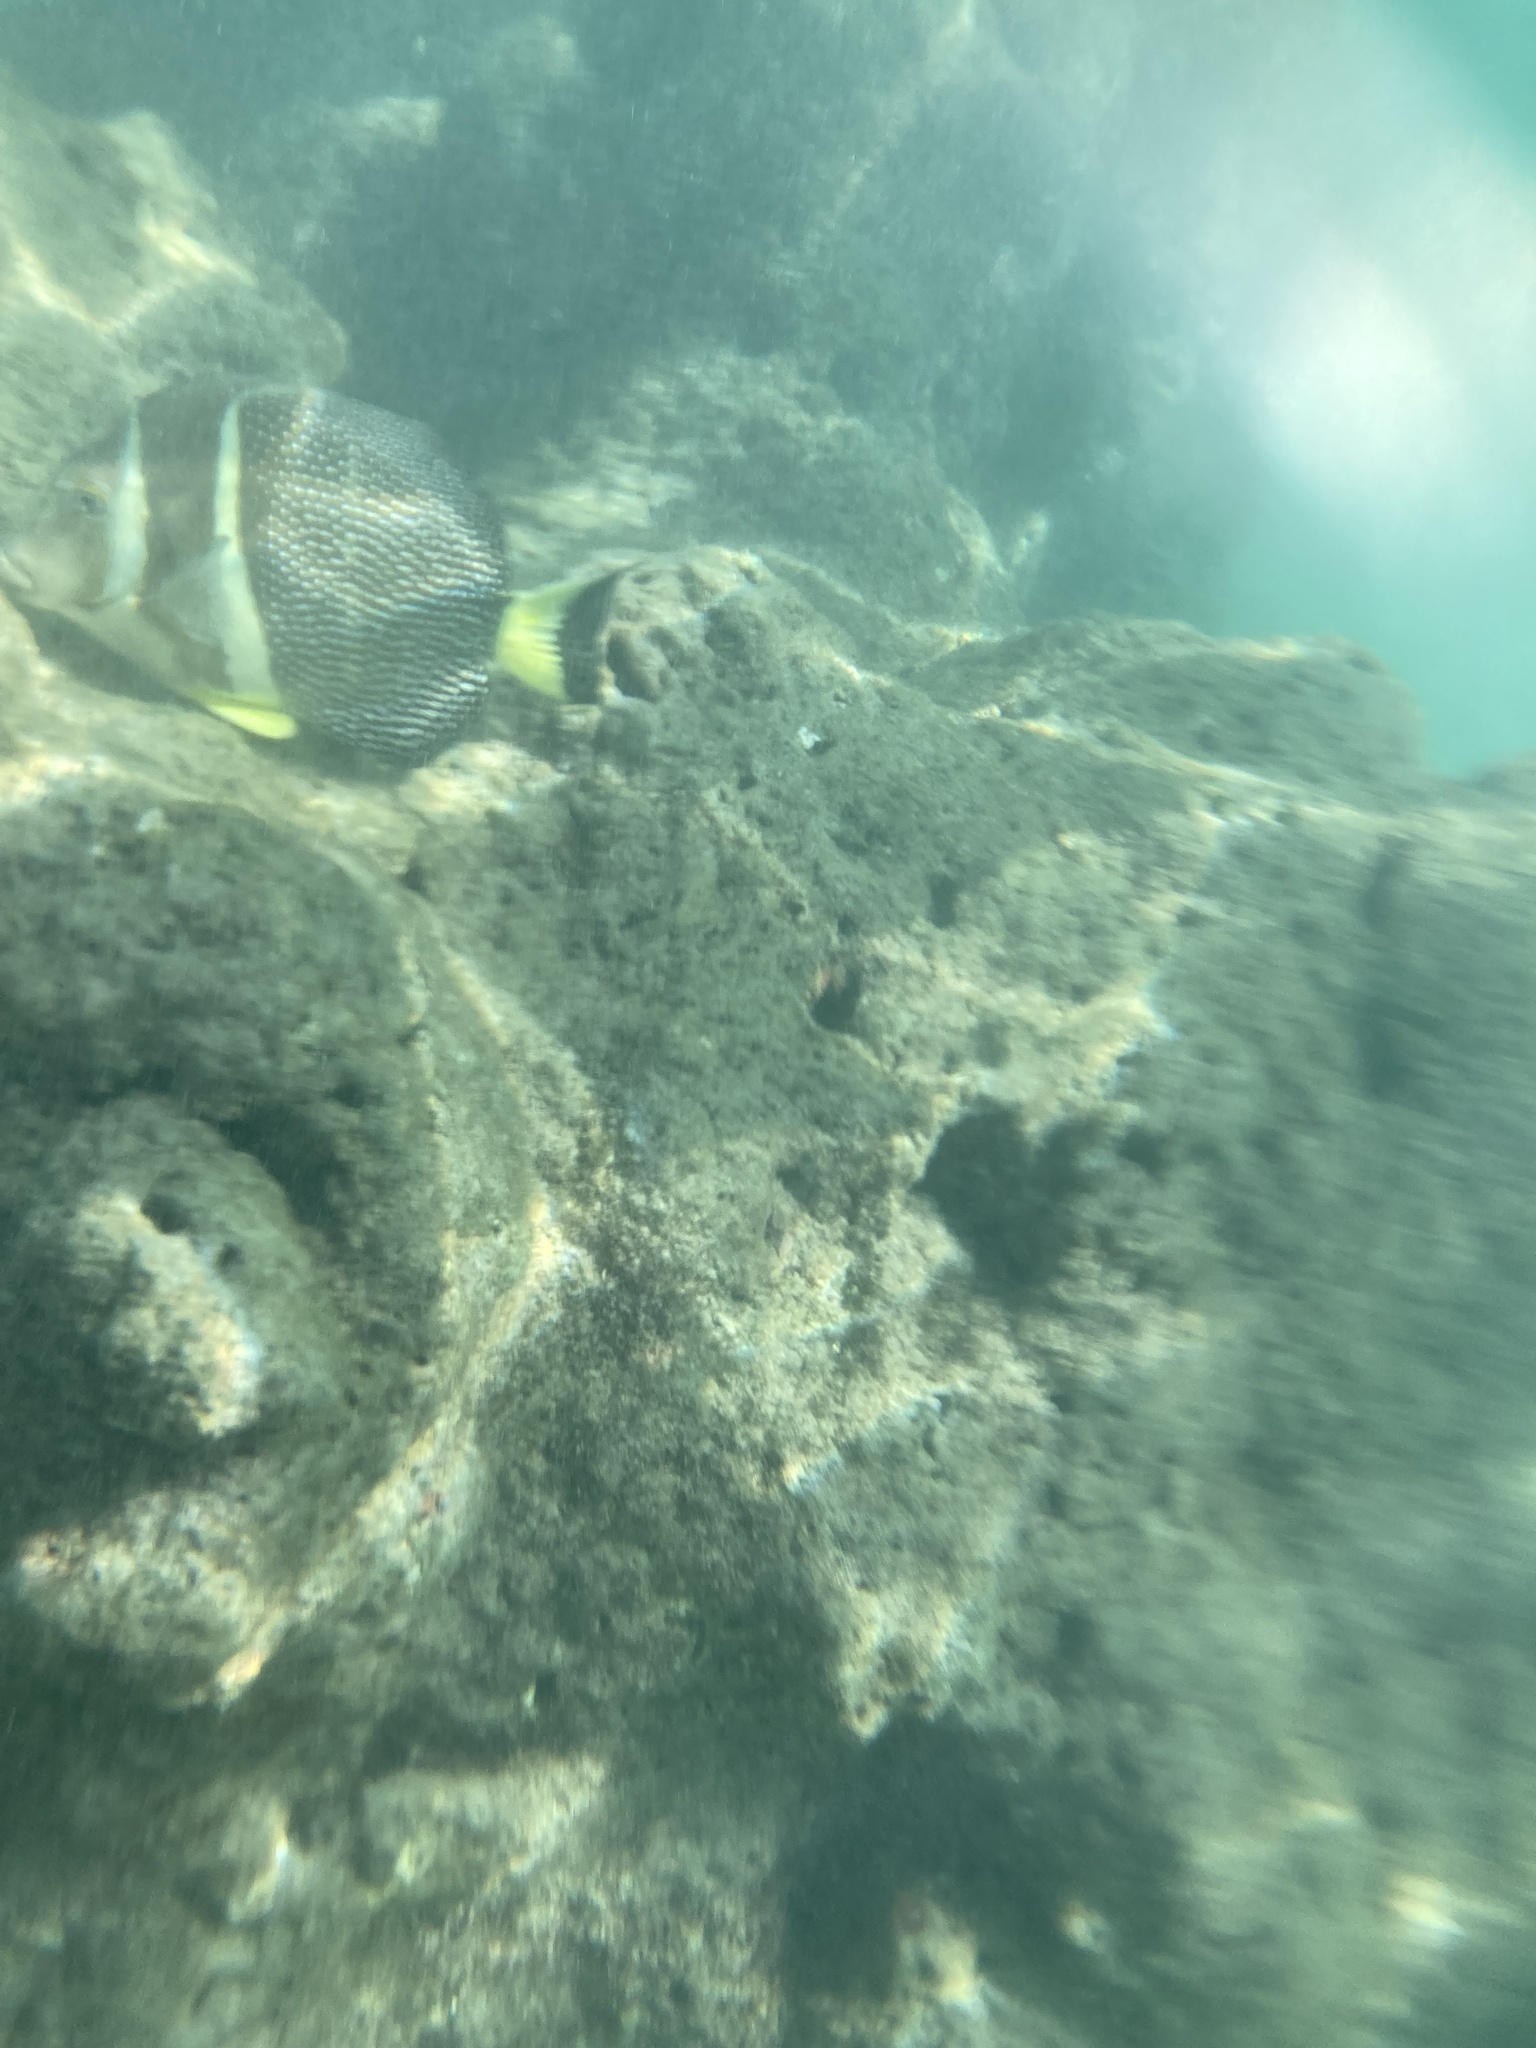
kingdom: Animalia
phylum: Chordata
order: Perciformes
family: Acanthuridae
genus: Acanthurus
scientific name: Acanthurus guttatus
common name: Whitespotted surgeonfish
